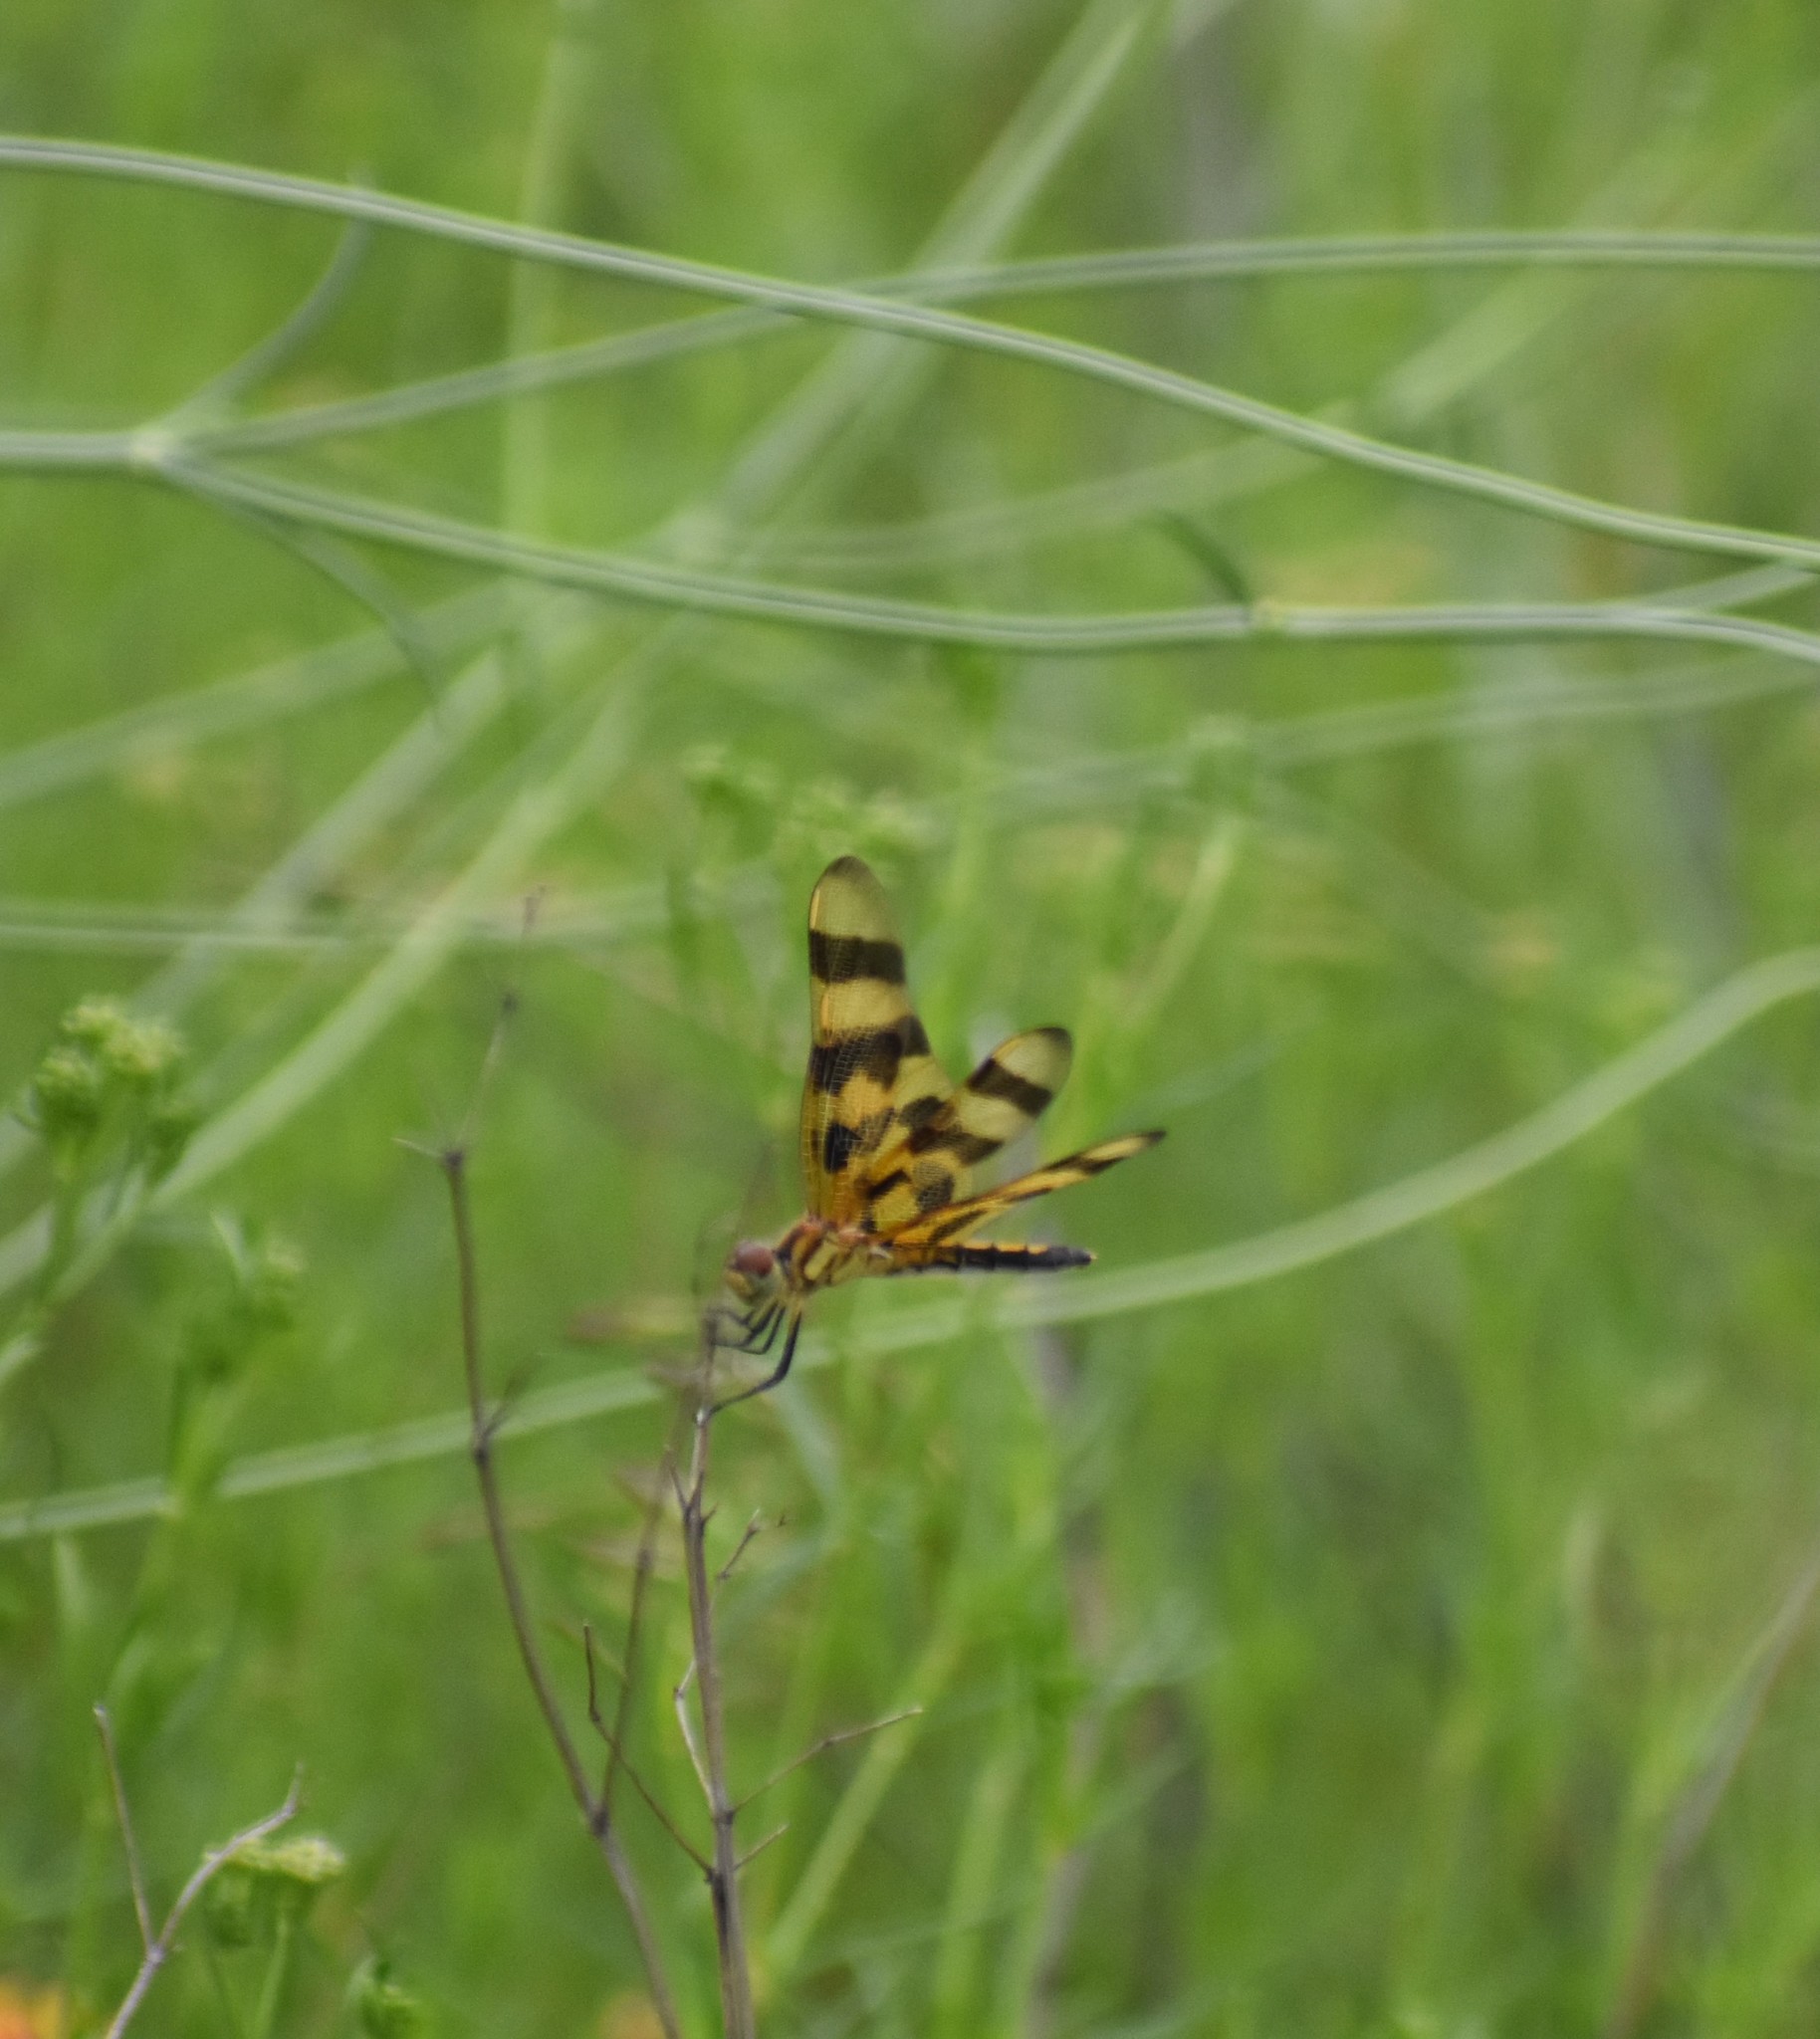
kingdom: Animalia
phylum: Arthropoda
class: Insecta
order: Odonata
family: Libellulidae
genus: Celithemis
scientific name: Celithemis eponina
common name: Halloween pennant
